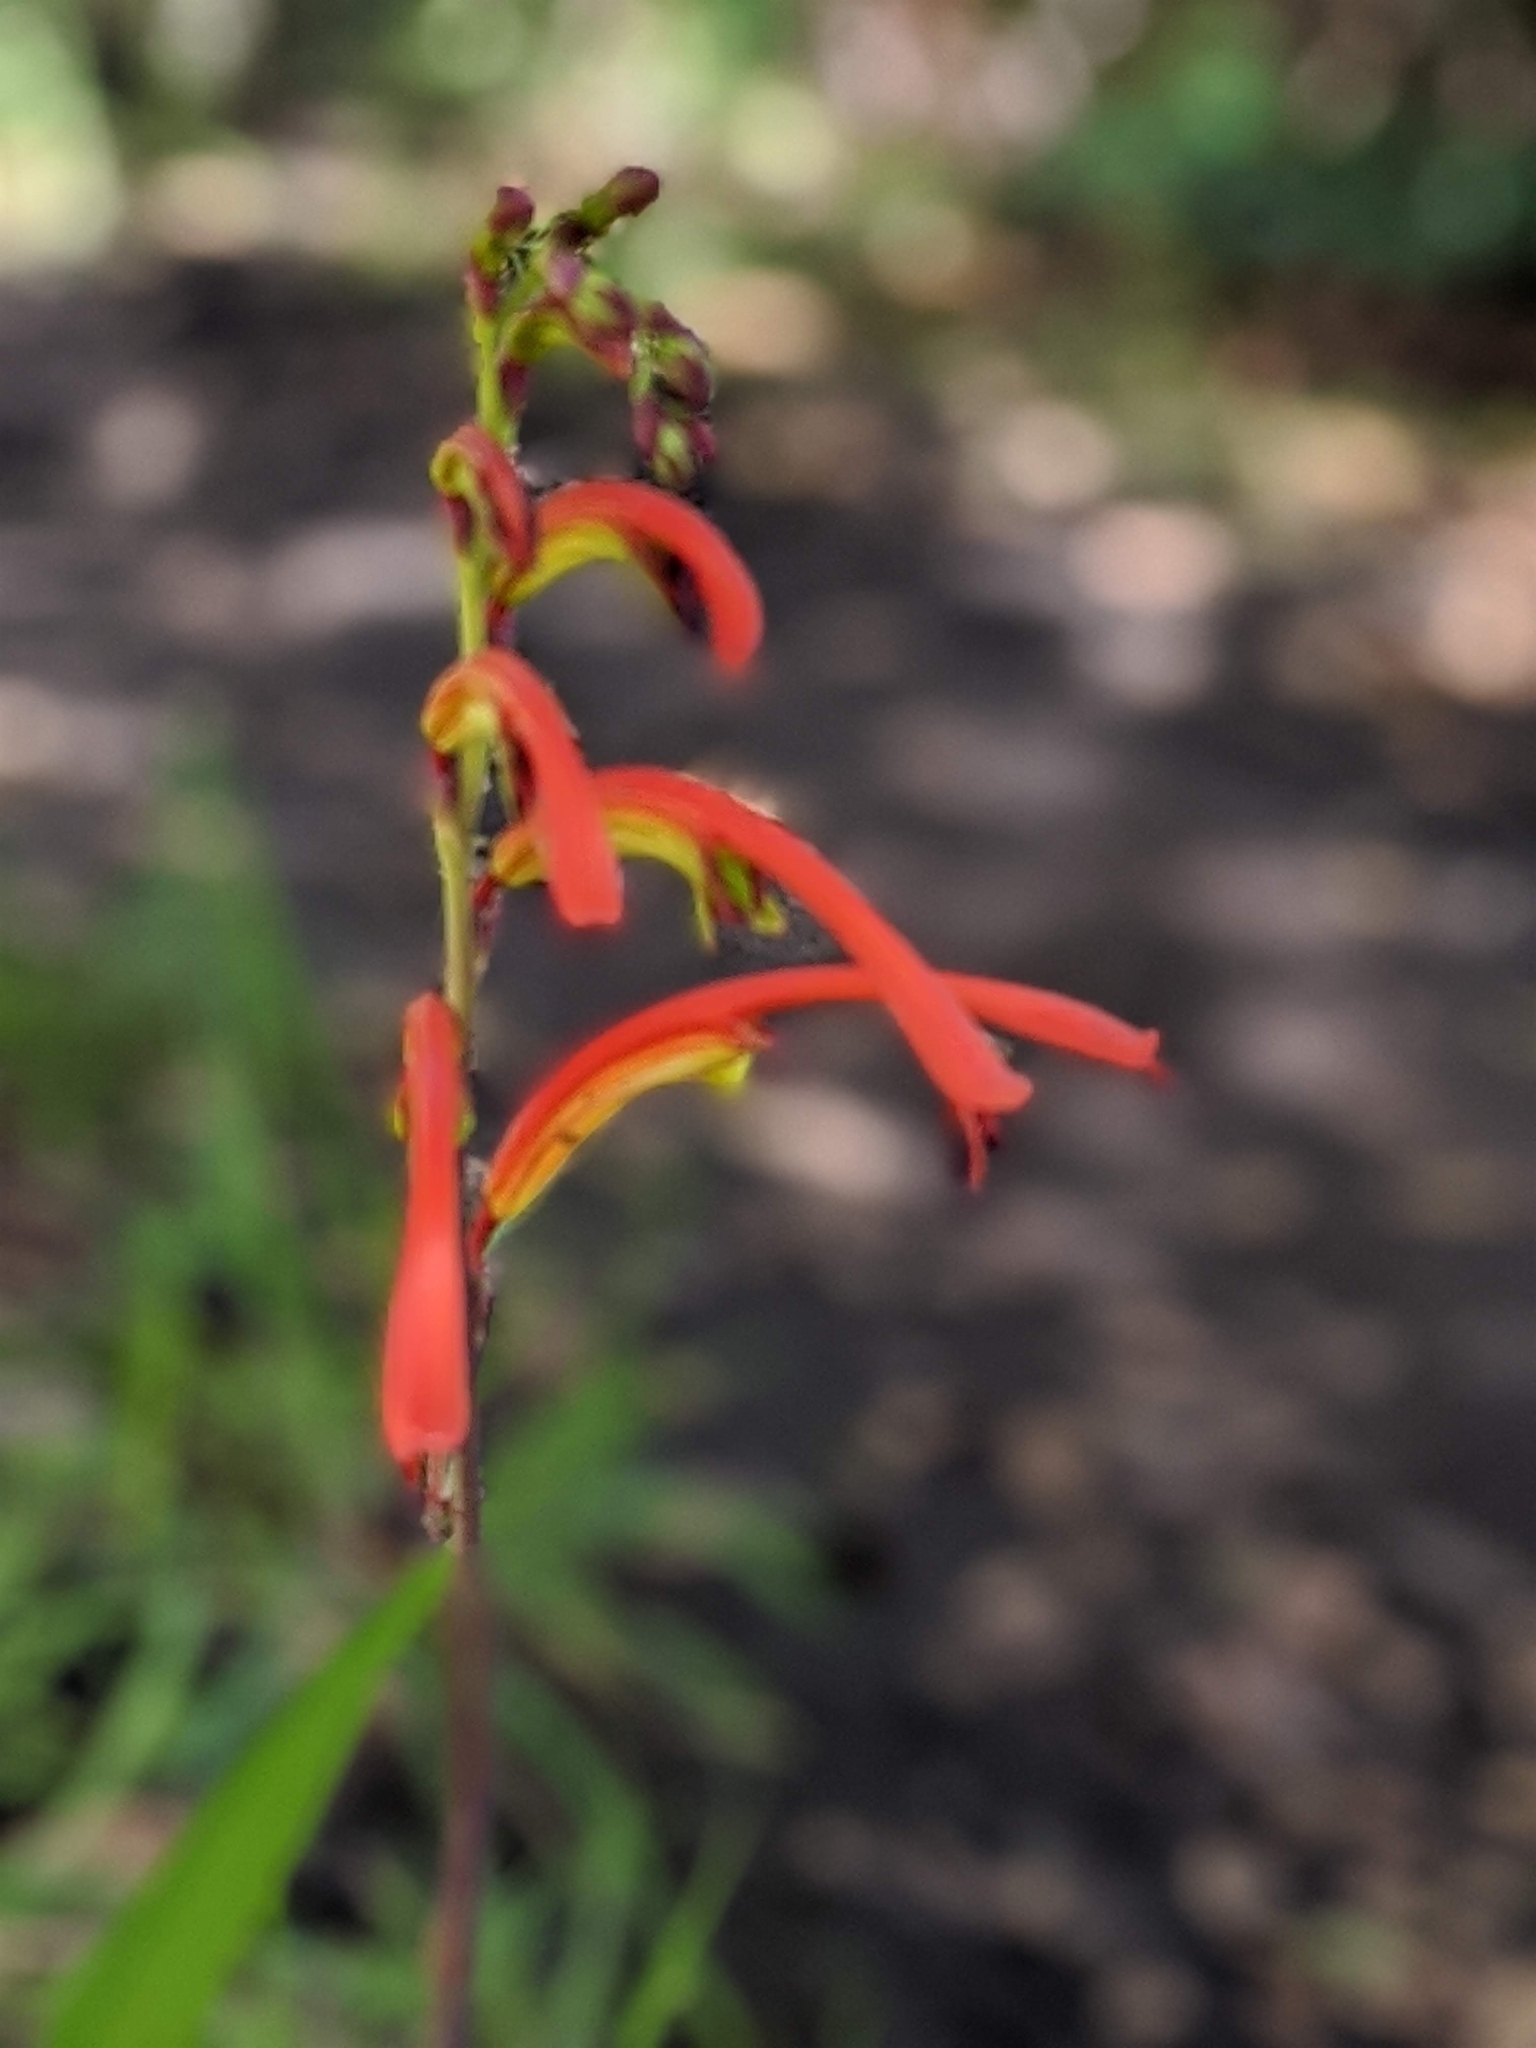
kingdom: Plantae
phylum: Tracheophyta
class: Liliopsida
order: Asparagales
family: Iridaceae
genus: Chasmanthe
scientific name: Chasmanthe bicolor
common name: Bicolor cobra lily
